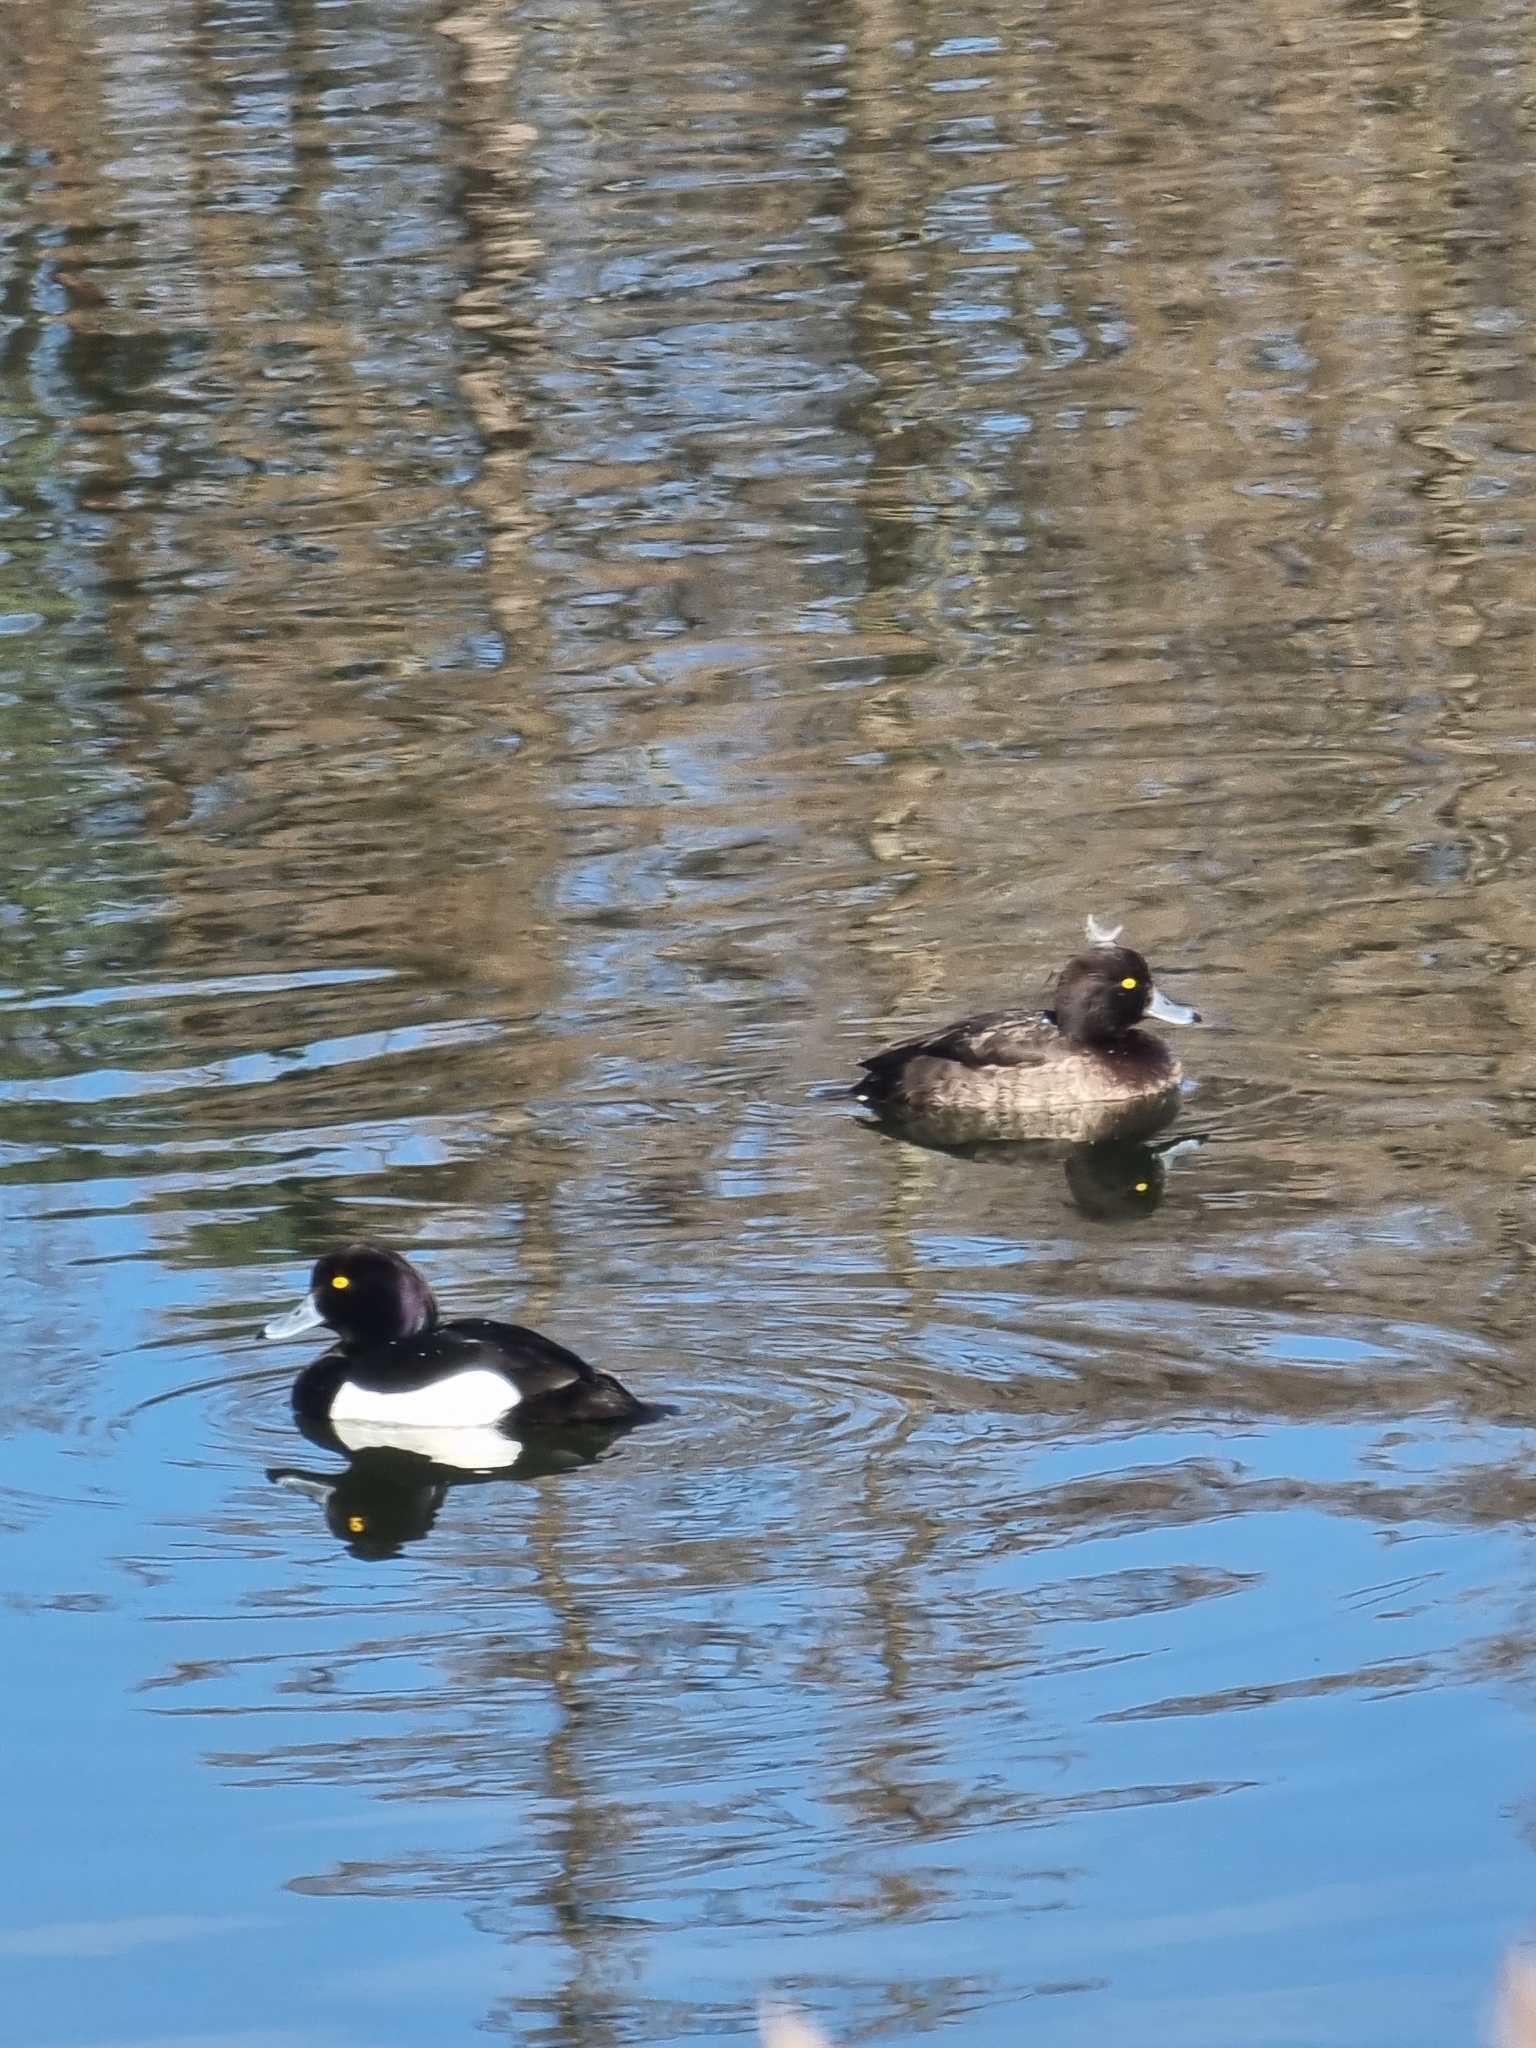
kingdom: Animalia
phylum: Chordata
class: Aves
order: Anseriformes
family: Anatidae
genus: Aythya
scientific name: Aythya fuligula
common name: Tufted duck
